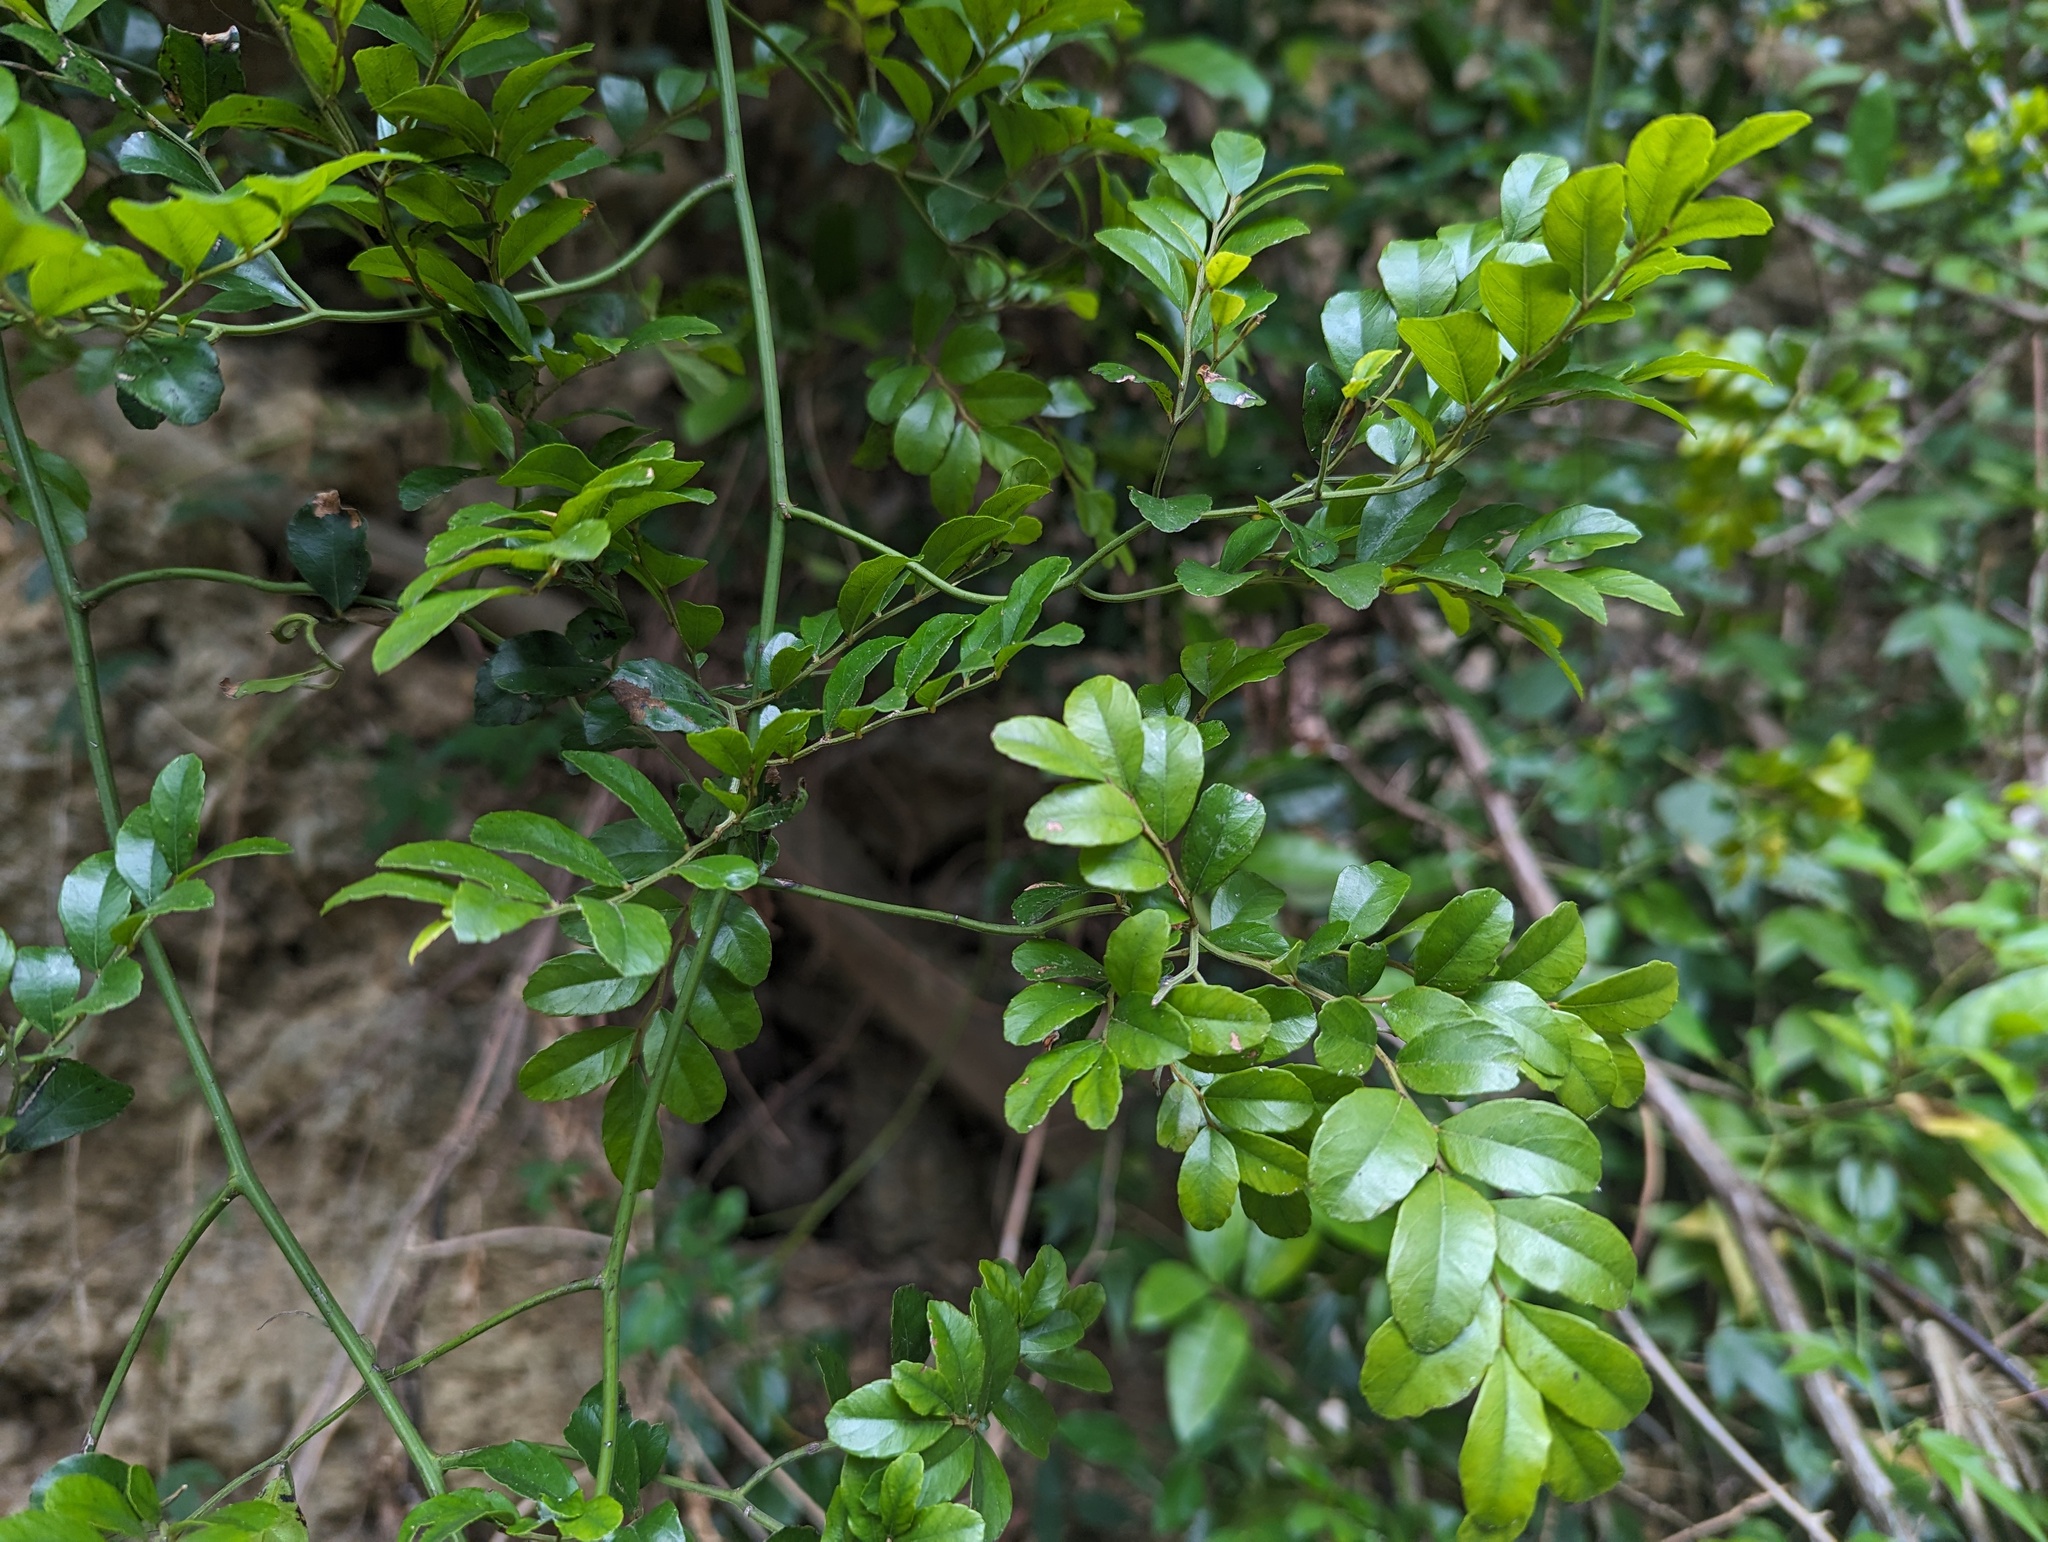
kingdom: Plantae
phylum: Tracheophyta
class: Magnoliopsida
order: Rosales
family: Rhamnaceae
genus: Ventilago
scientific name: Ventilago elegans
